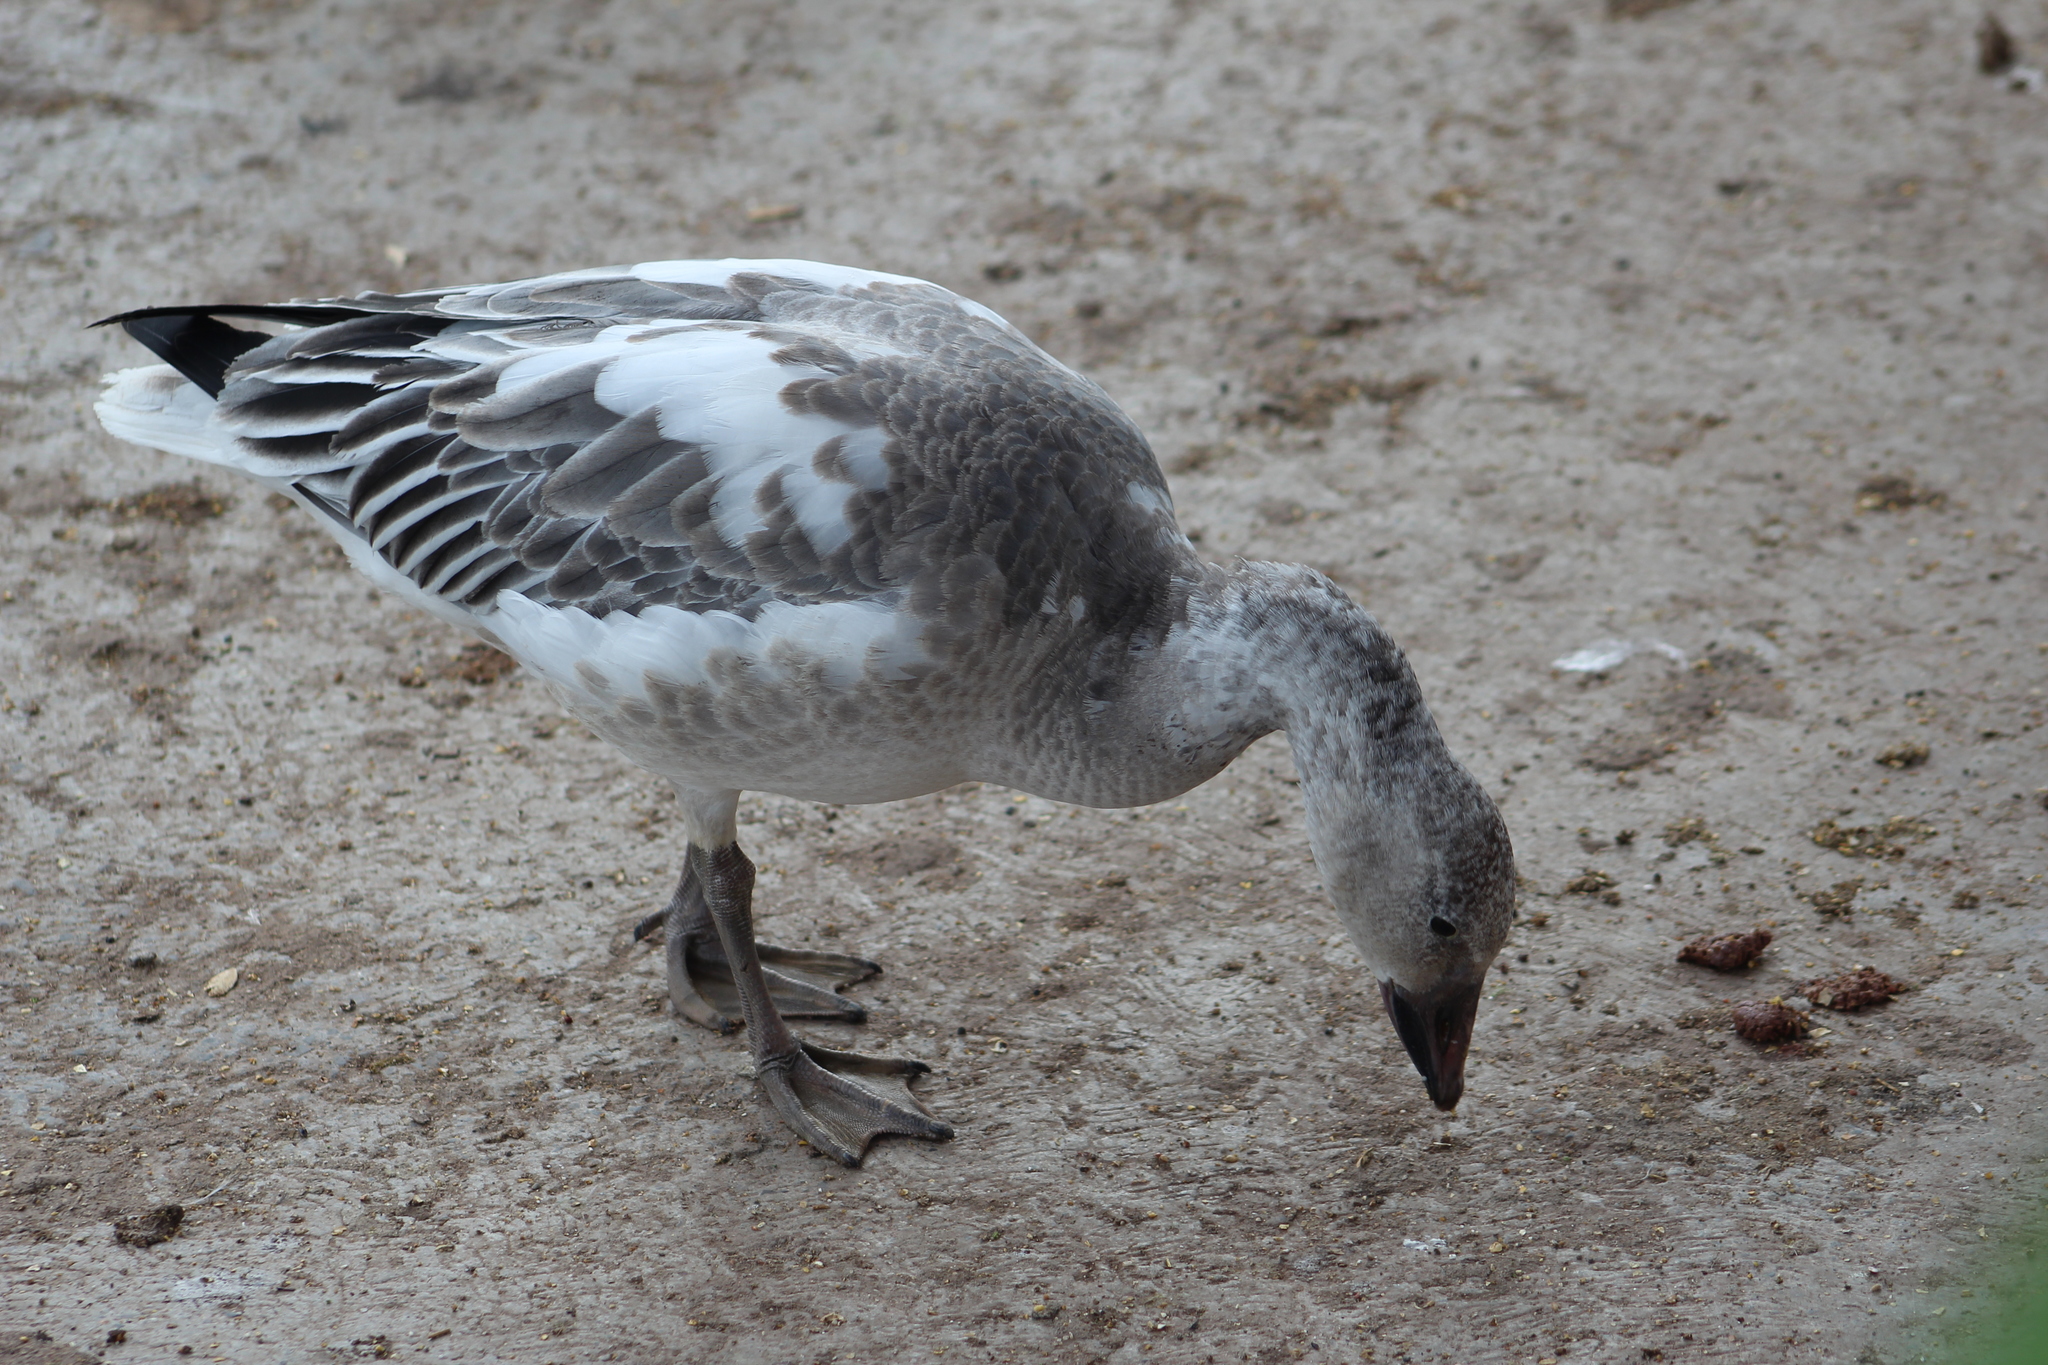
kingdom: Animalia
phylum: Chordata
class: Aves
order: Anseriformes
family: Anatidae
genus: Anser
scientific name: Anser caerulescens
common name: Snow goose
